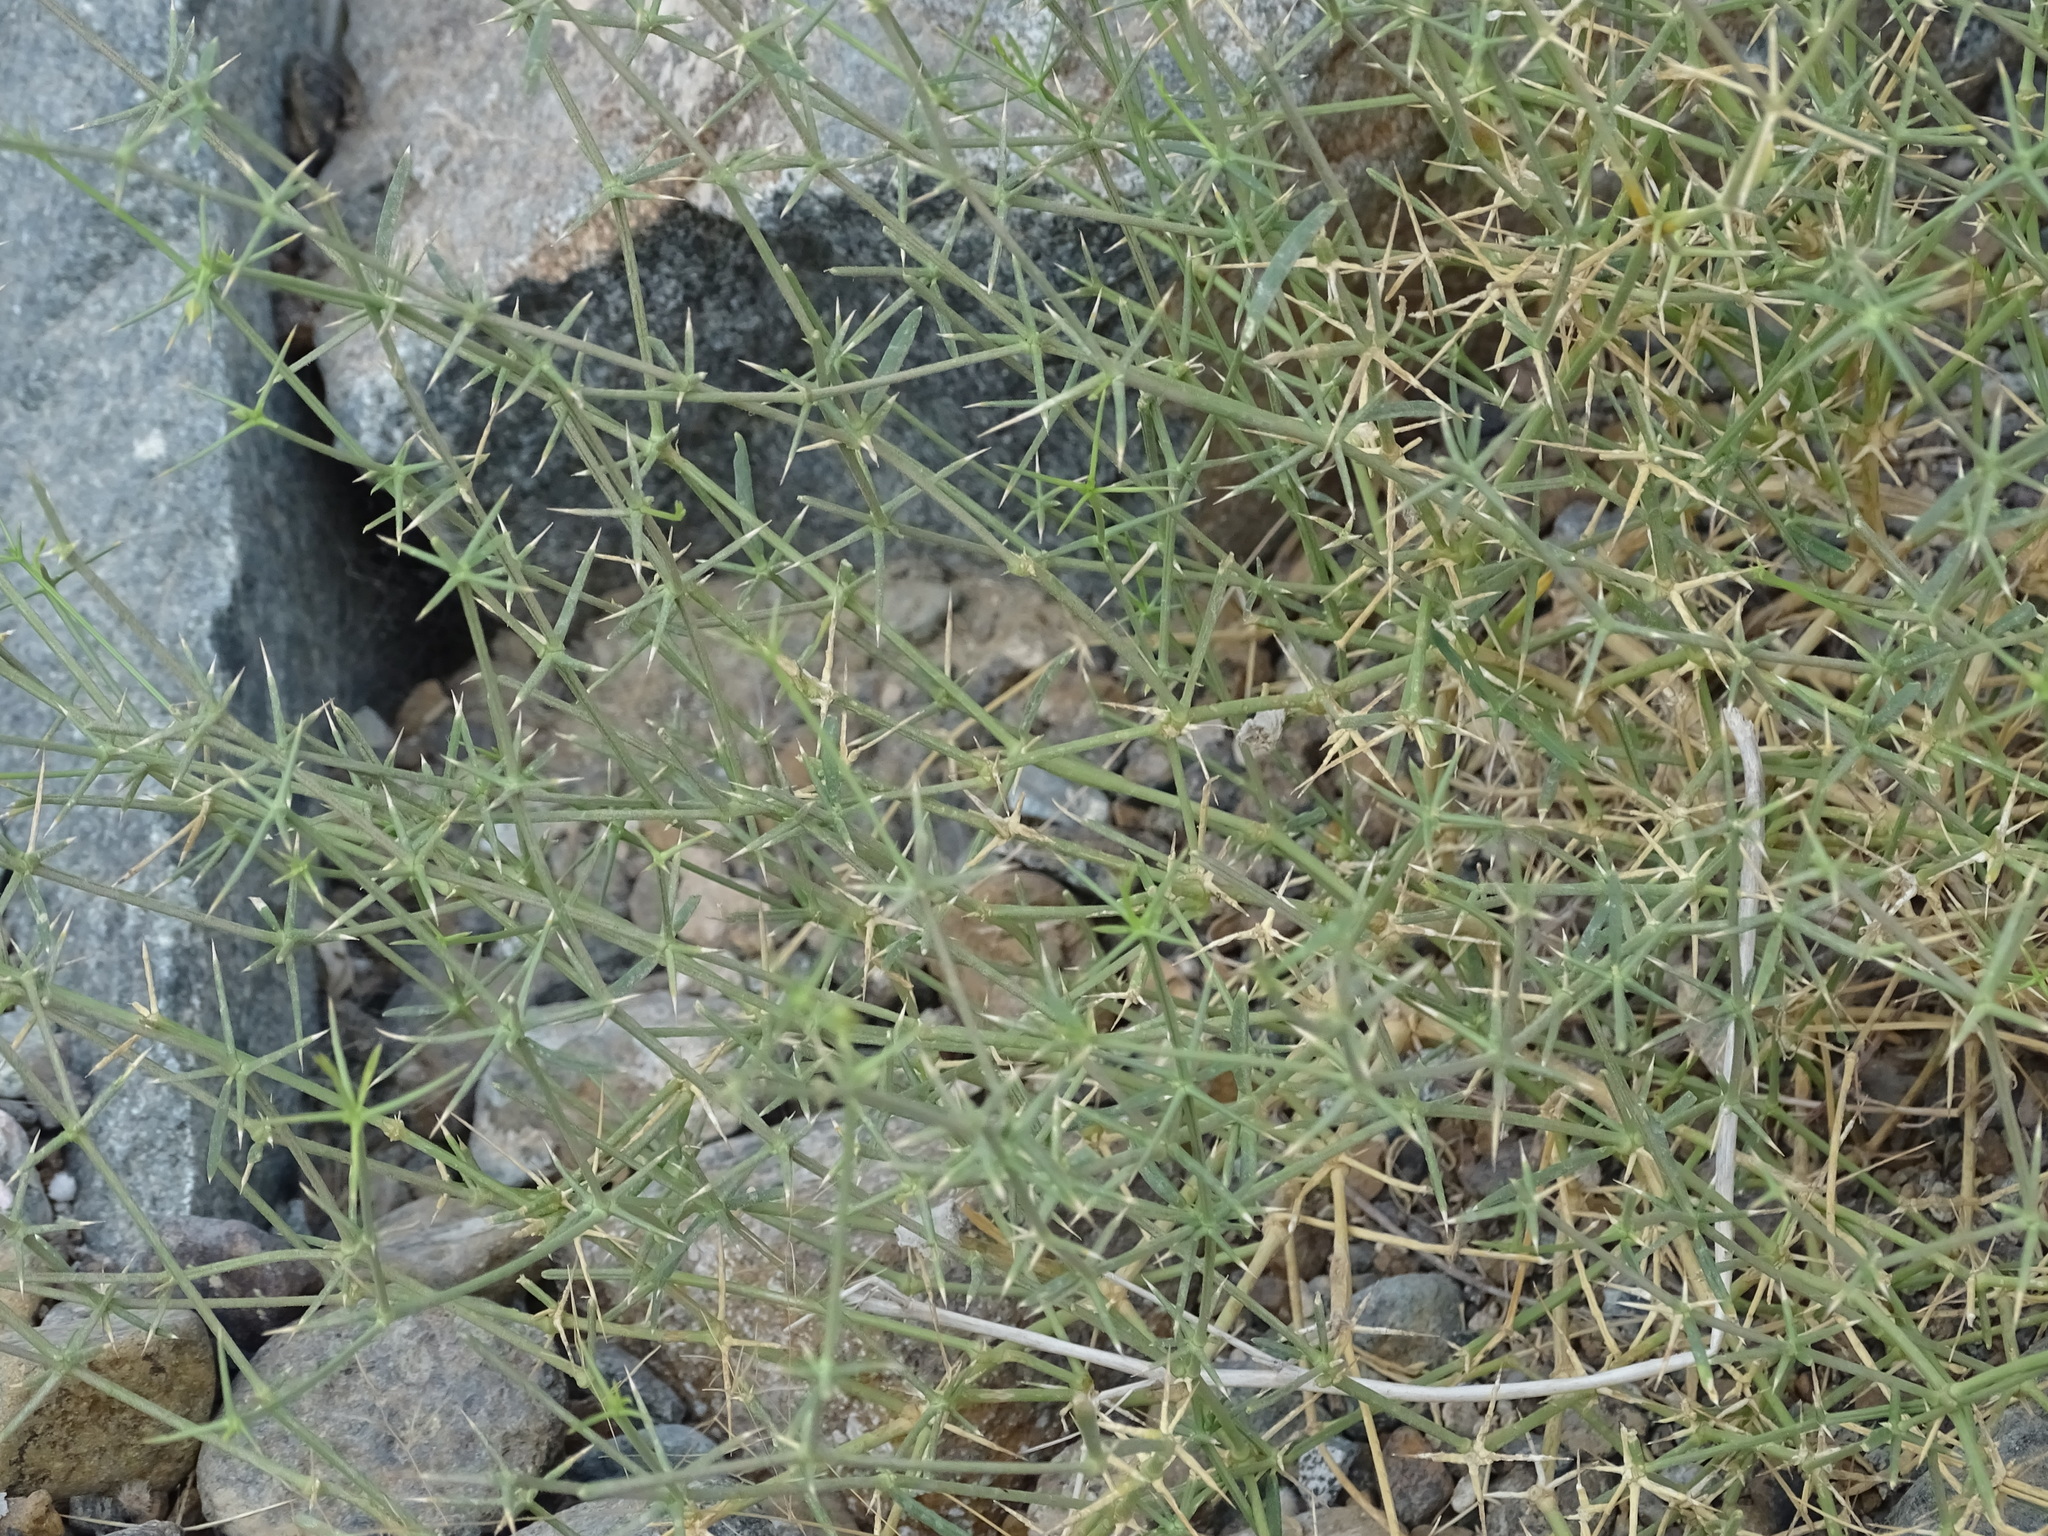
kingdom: Plantae
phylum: Tracheophyta
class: Magnoliopsida
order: Zygophyllales
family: Zygophyllaceae
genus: Fagonia
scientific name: Fagonia bruguieri
